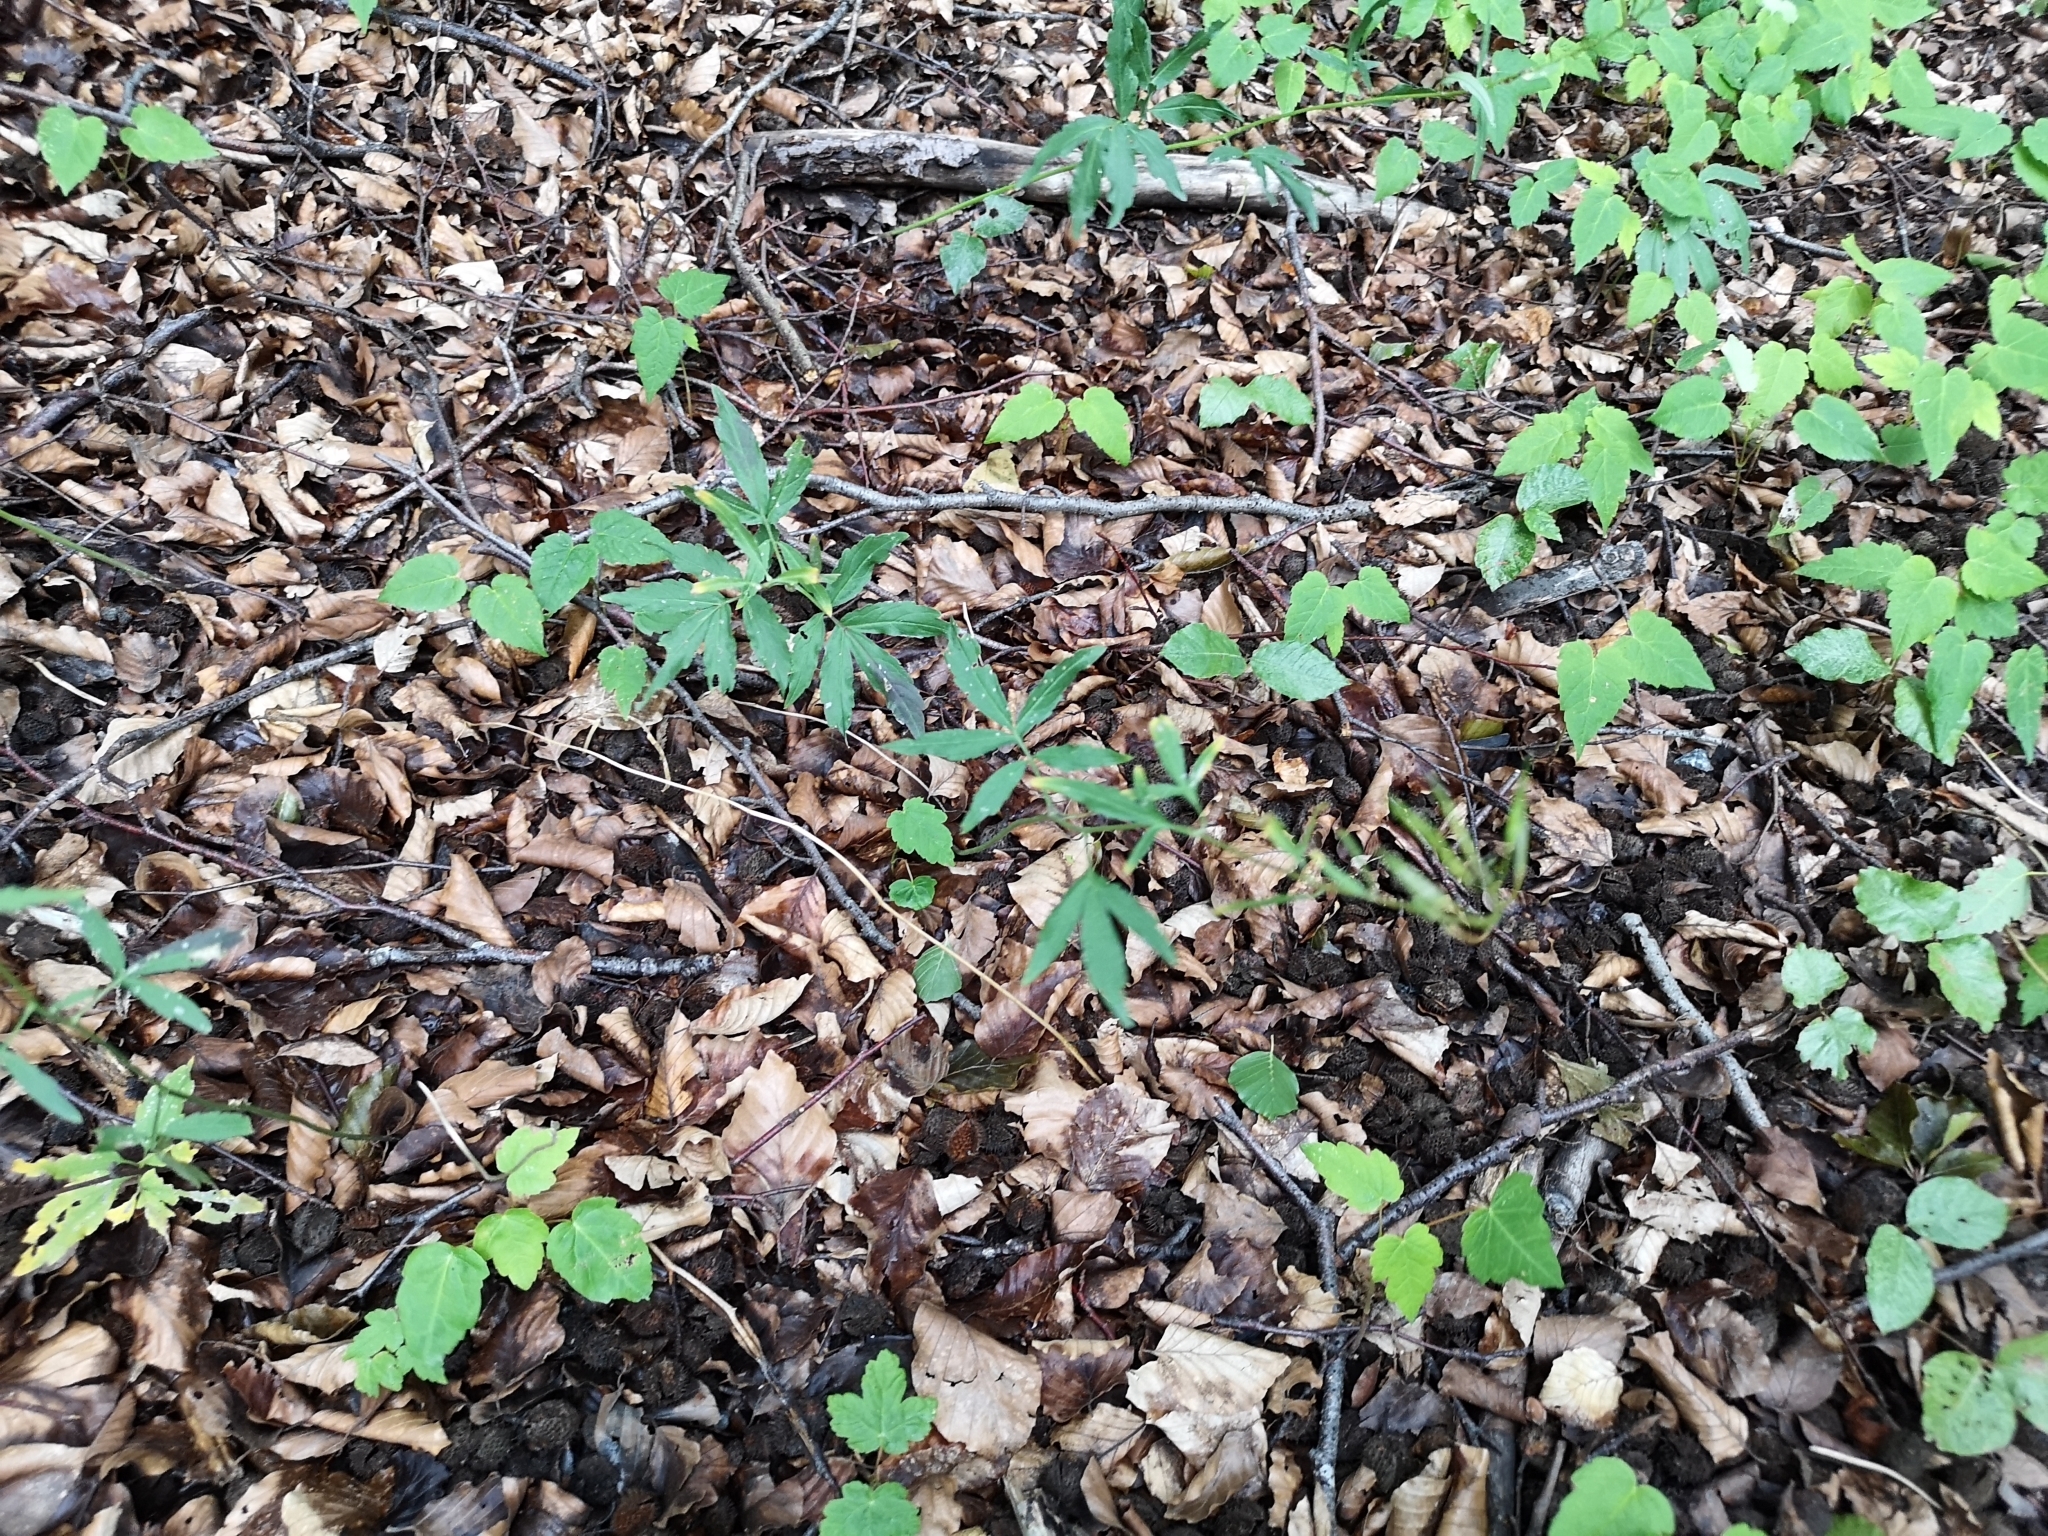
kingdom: Plantae
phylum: Tracheophyta
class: Magnoliopsida
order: Brassicales
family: Brassicaceae
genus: Cardamine
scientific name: Cardamine bulbifera
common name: Coralroot bittercress
